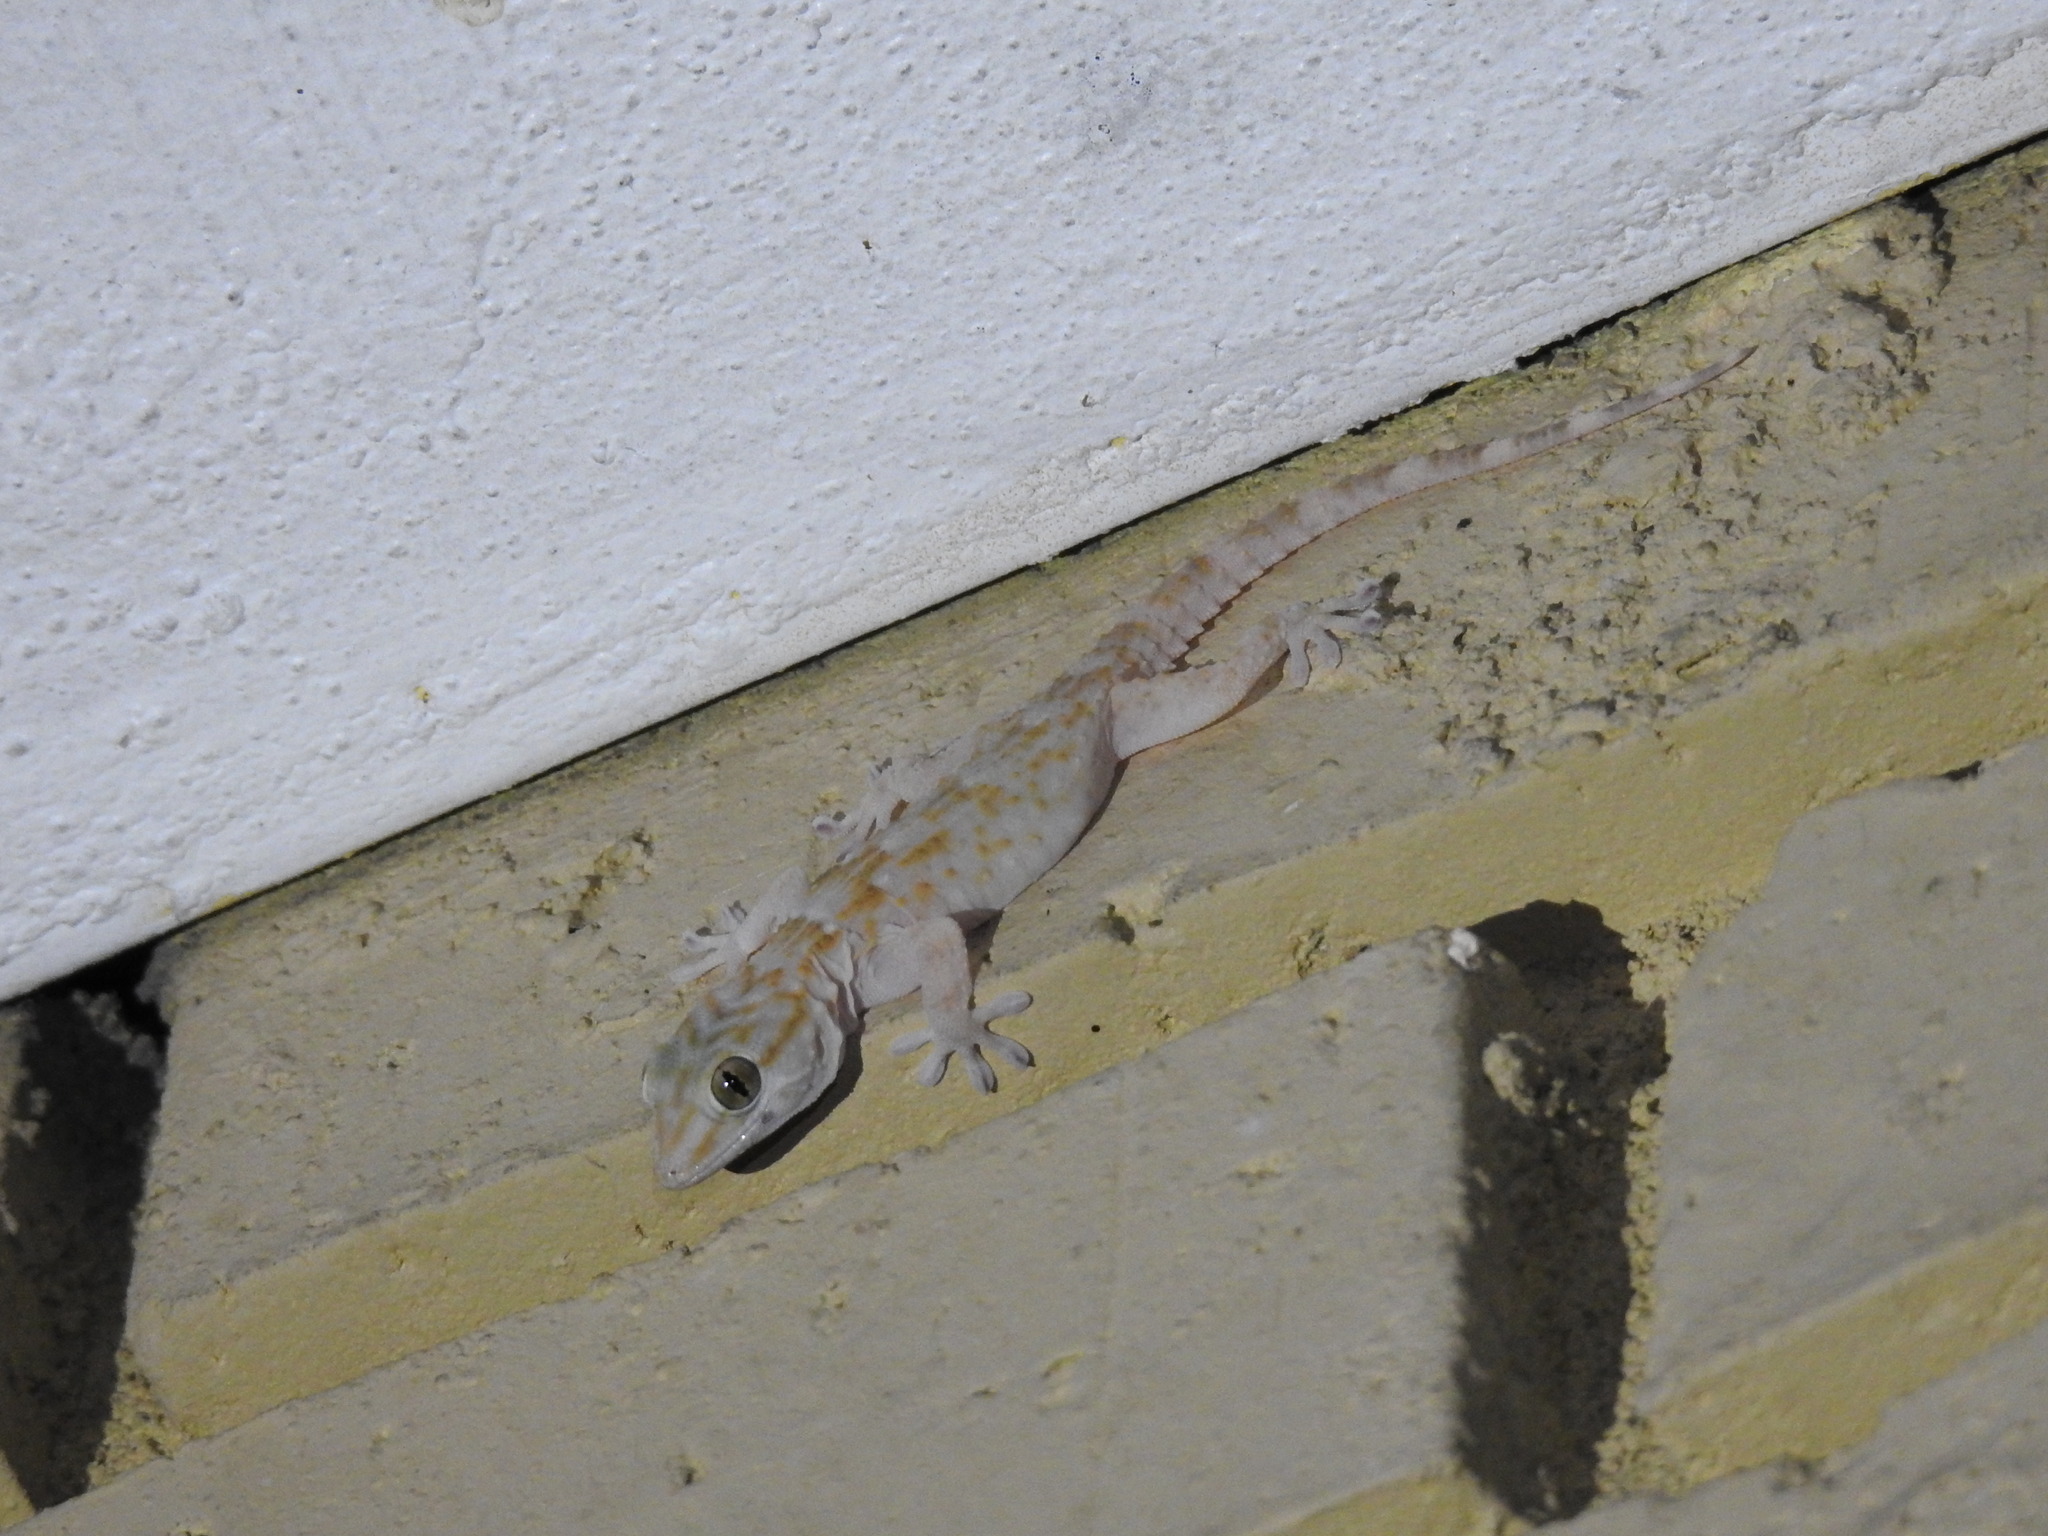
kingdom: Animalia
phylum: Chordata
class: Squamata
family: Phyllodactylidae
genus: Tarentola
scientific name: Tarentola annularis
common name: White-spotted wall gecko
